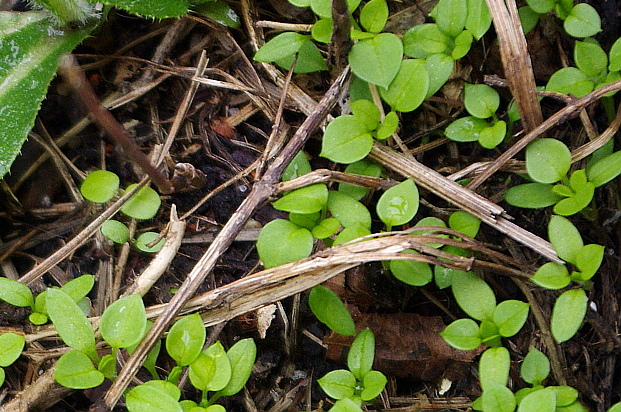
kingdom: Plantae
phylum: Tracheophyta
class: Magnoliopsida
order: Caryophyllales
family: Caryophyllaceae
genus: Stellaria
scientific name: Stellaria media
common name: Common chickweed
